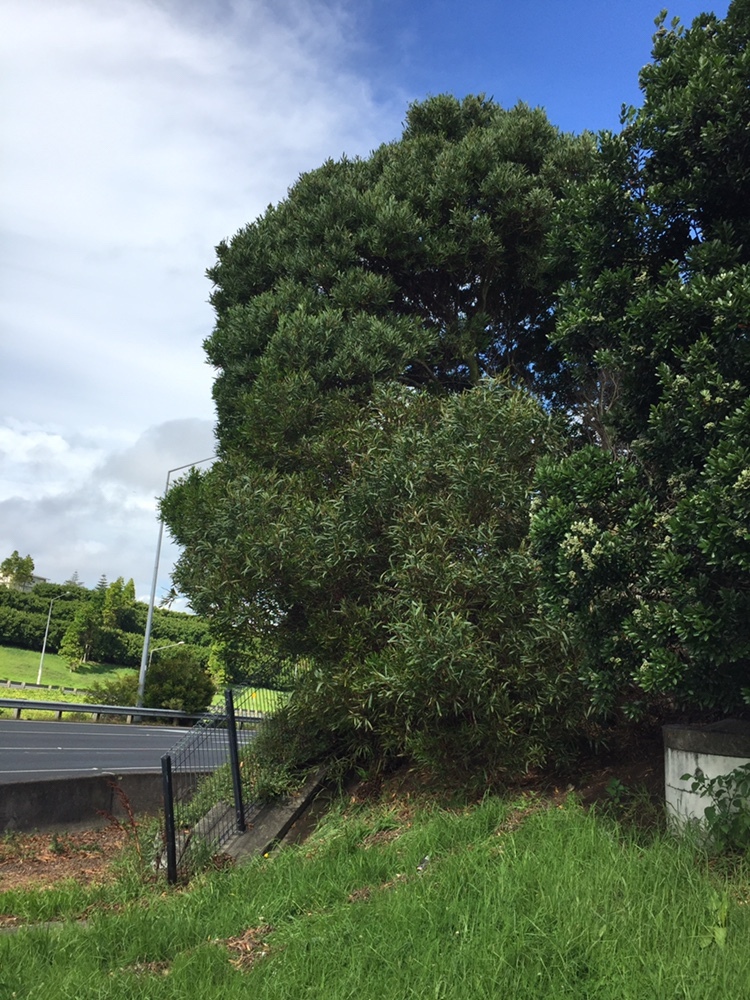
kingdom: Animalia
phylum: Arthropoda
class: Insecta
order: Coleoptera
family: Curculionidae
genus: Epamoebus
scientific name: Epamoebus ziczac
